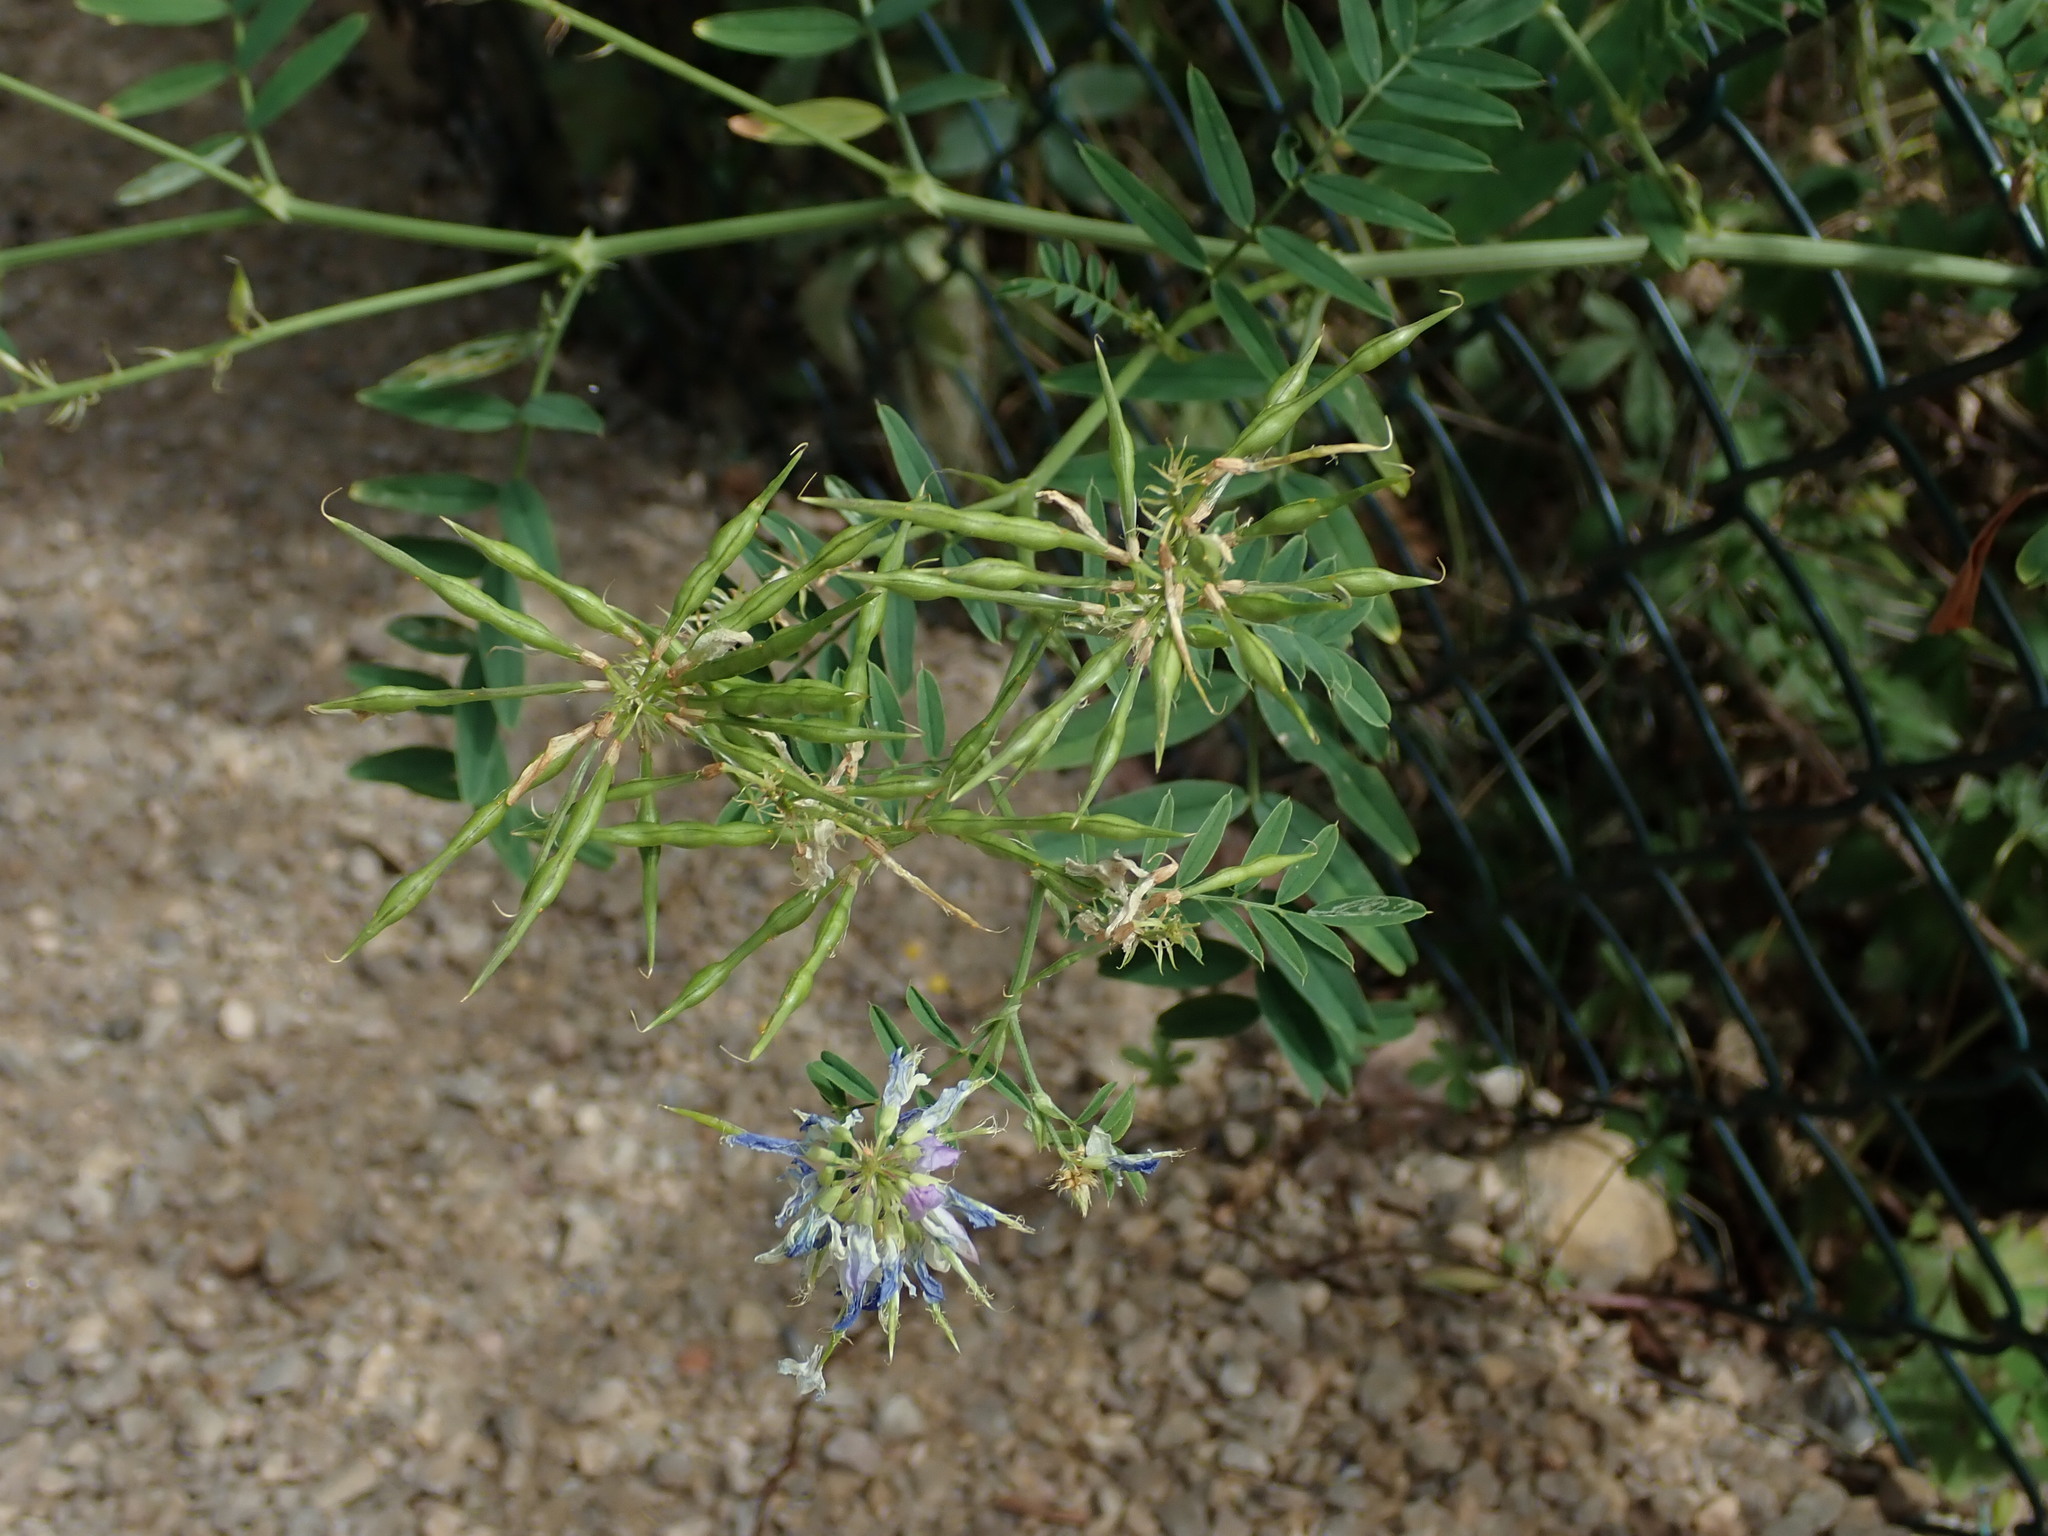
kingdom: Plantae
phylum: Tracheophyta
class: Magnoliopsida
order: Fabales
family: Fabaceae
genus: Galega
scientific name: Galega officinalis
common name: Goat's-rue
